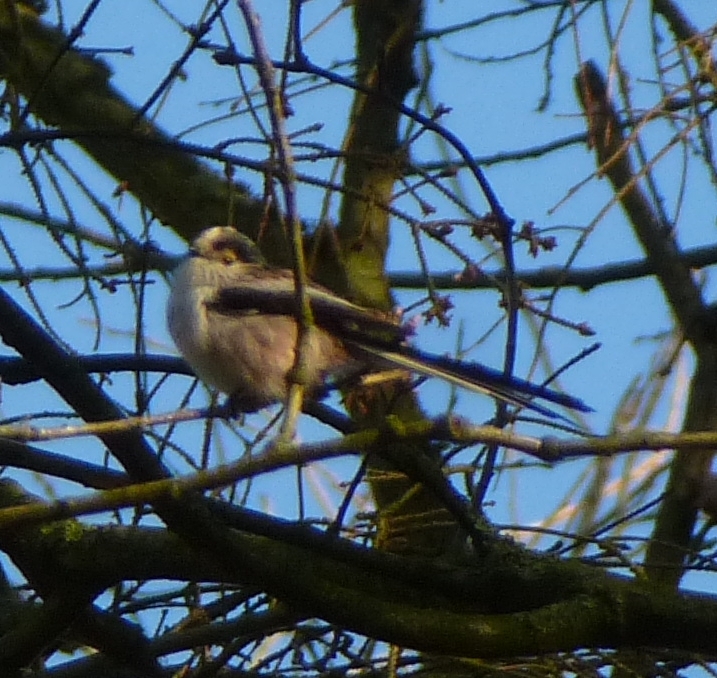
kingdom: Animalia
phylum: Chordata
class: Aves
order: Passeriformes
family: Aegithalidae
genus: Aegithalos
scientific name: Aegithalos caudatus
